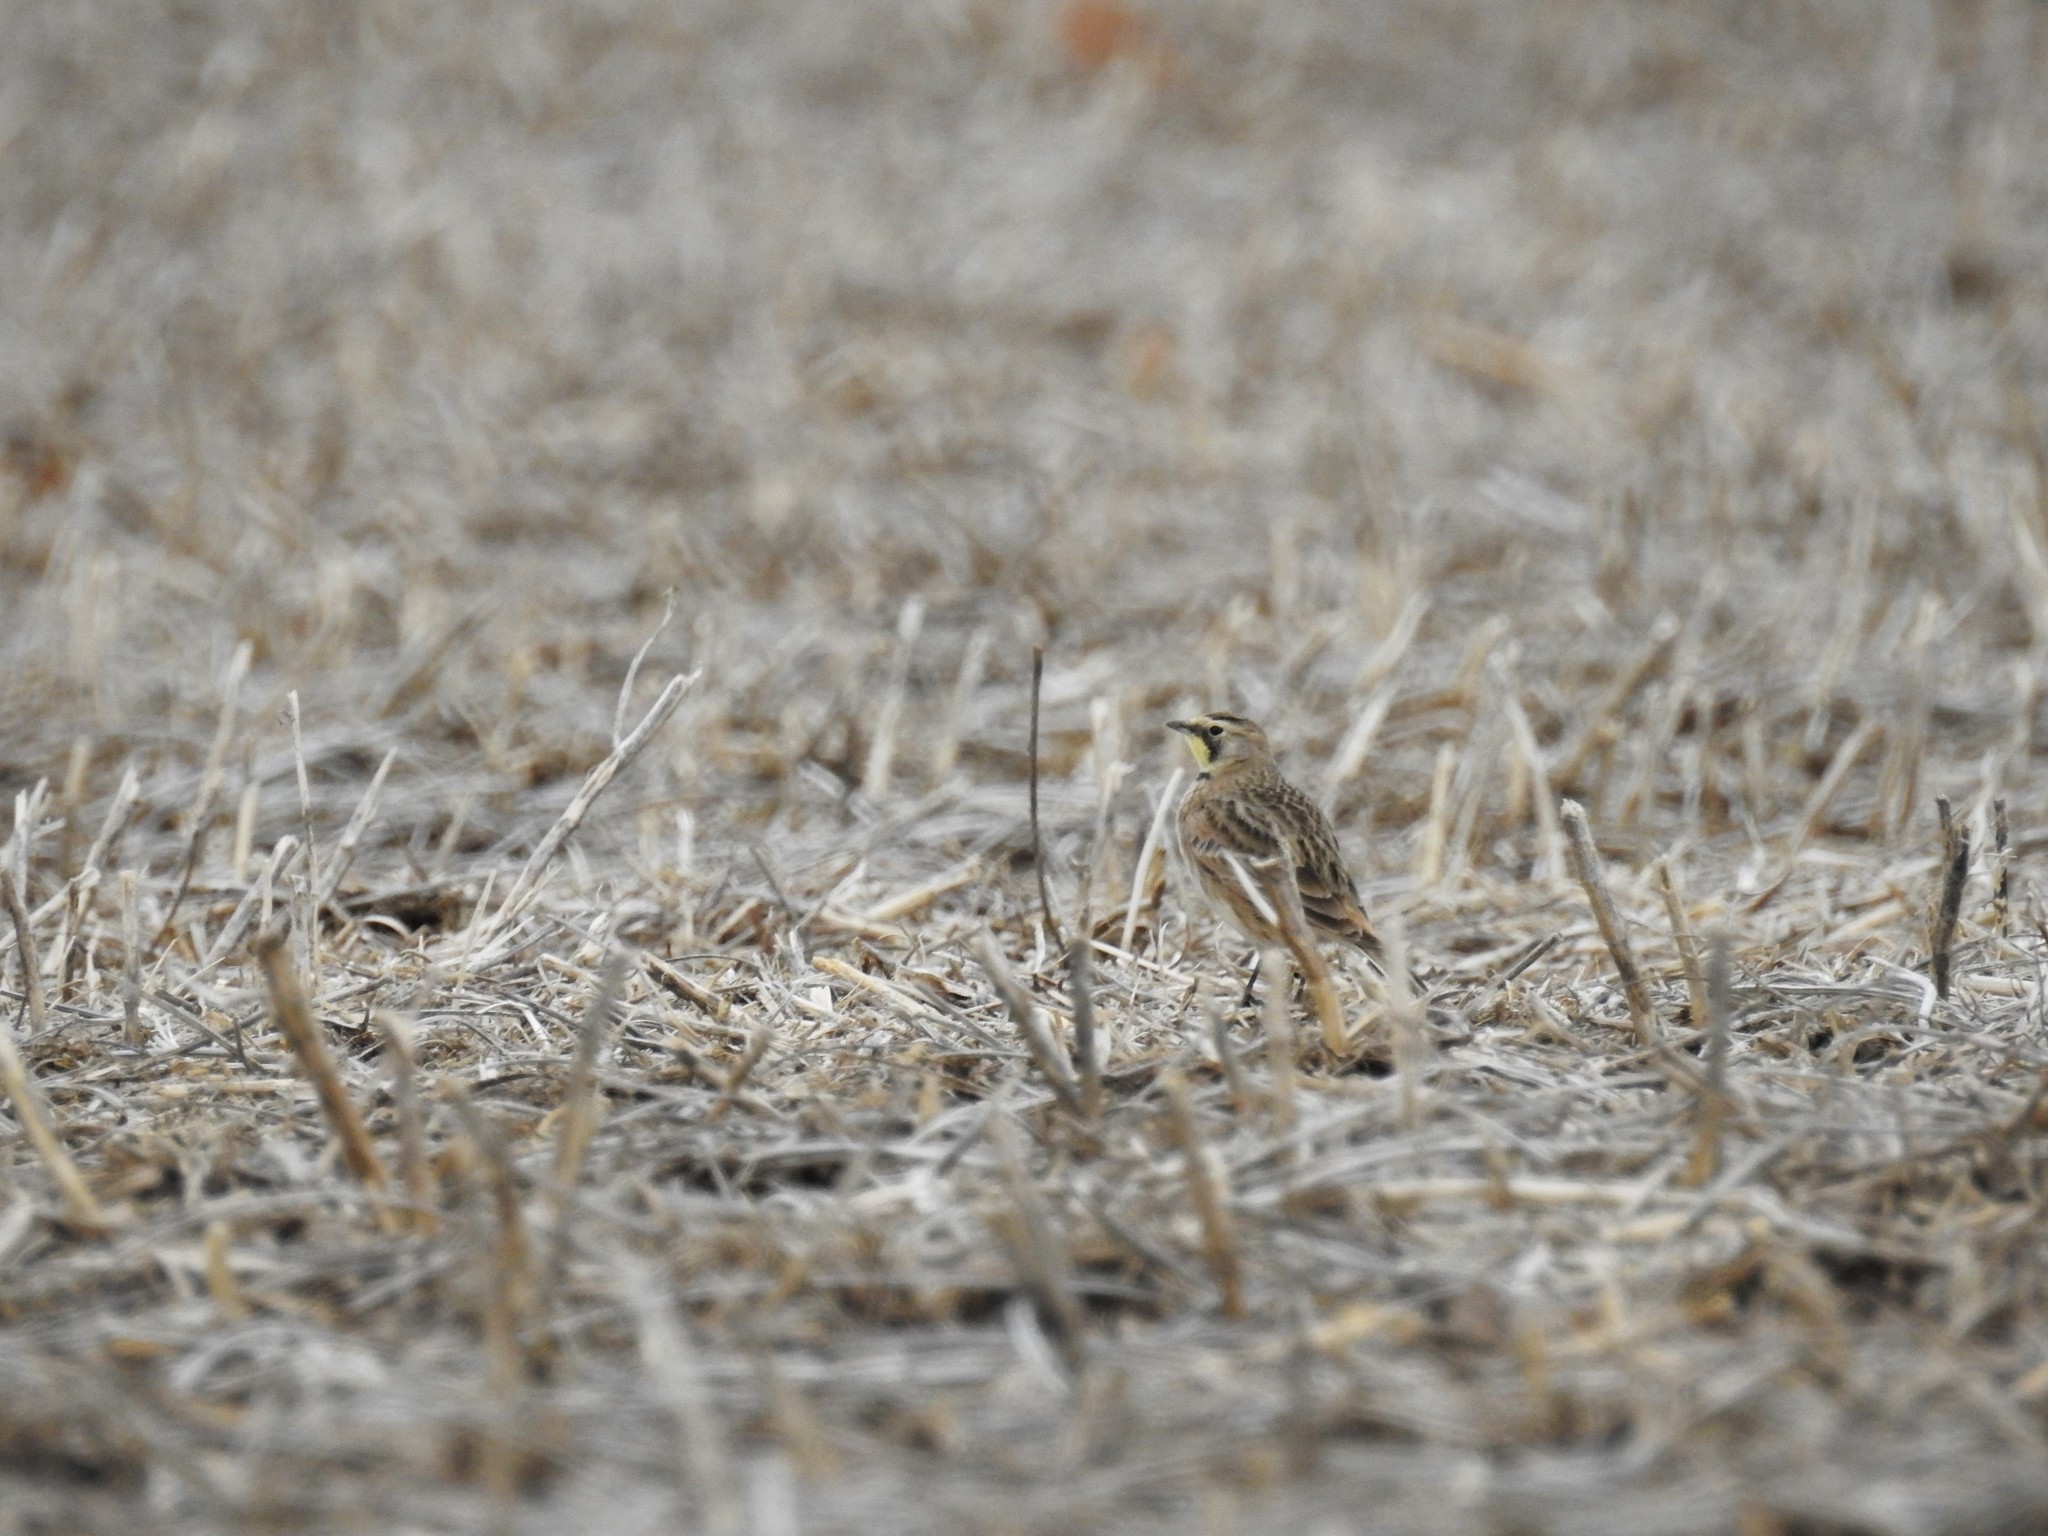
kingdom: Animalia
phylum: Chordata
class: Aves
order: Passeriformes
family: Alaudidae
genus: Eremophila
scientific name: Eremophila alpestris
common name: Horned lark
